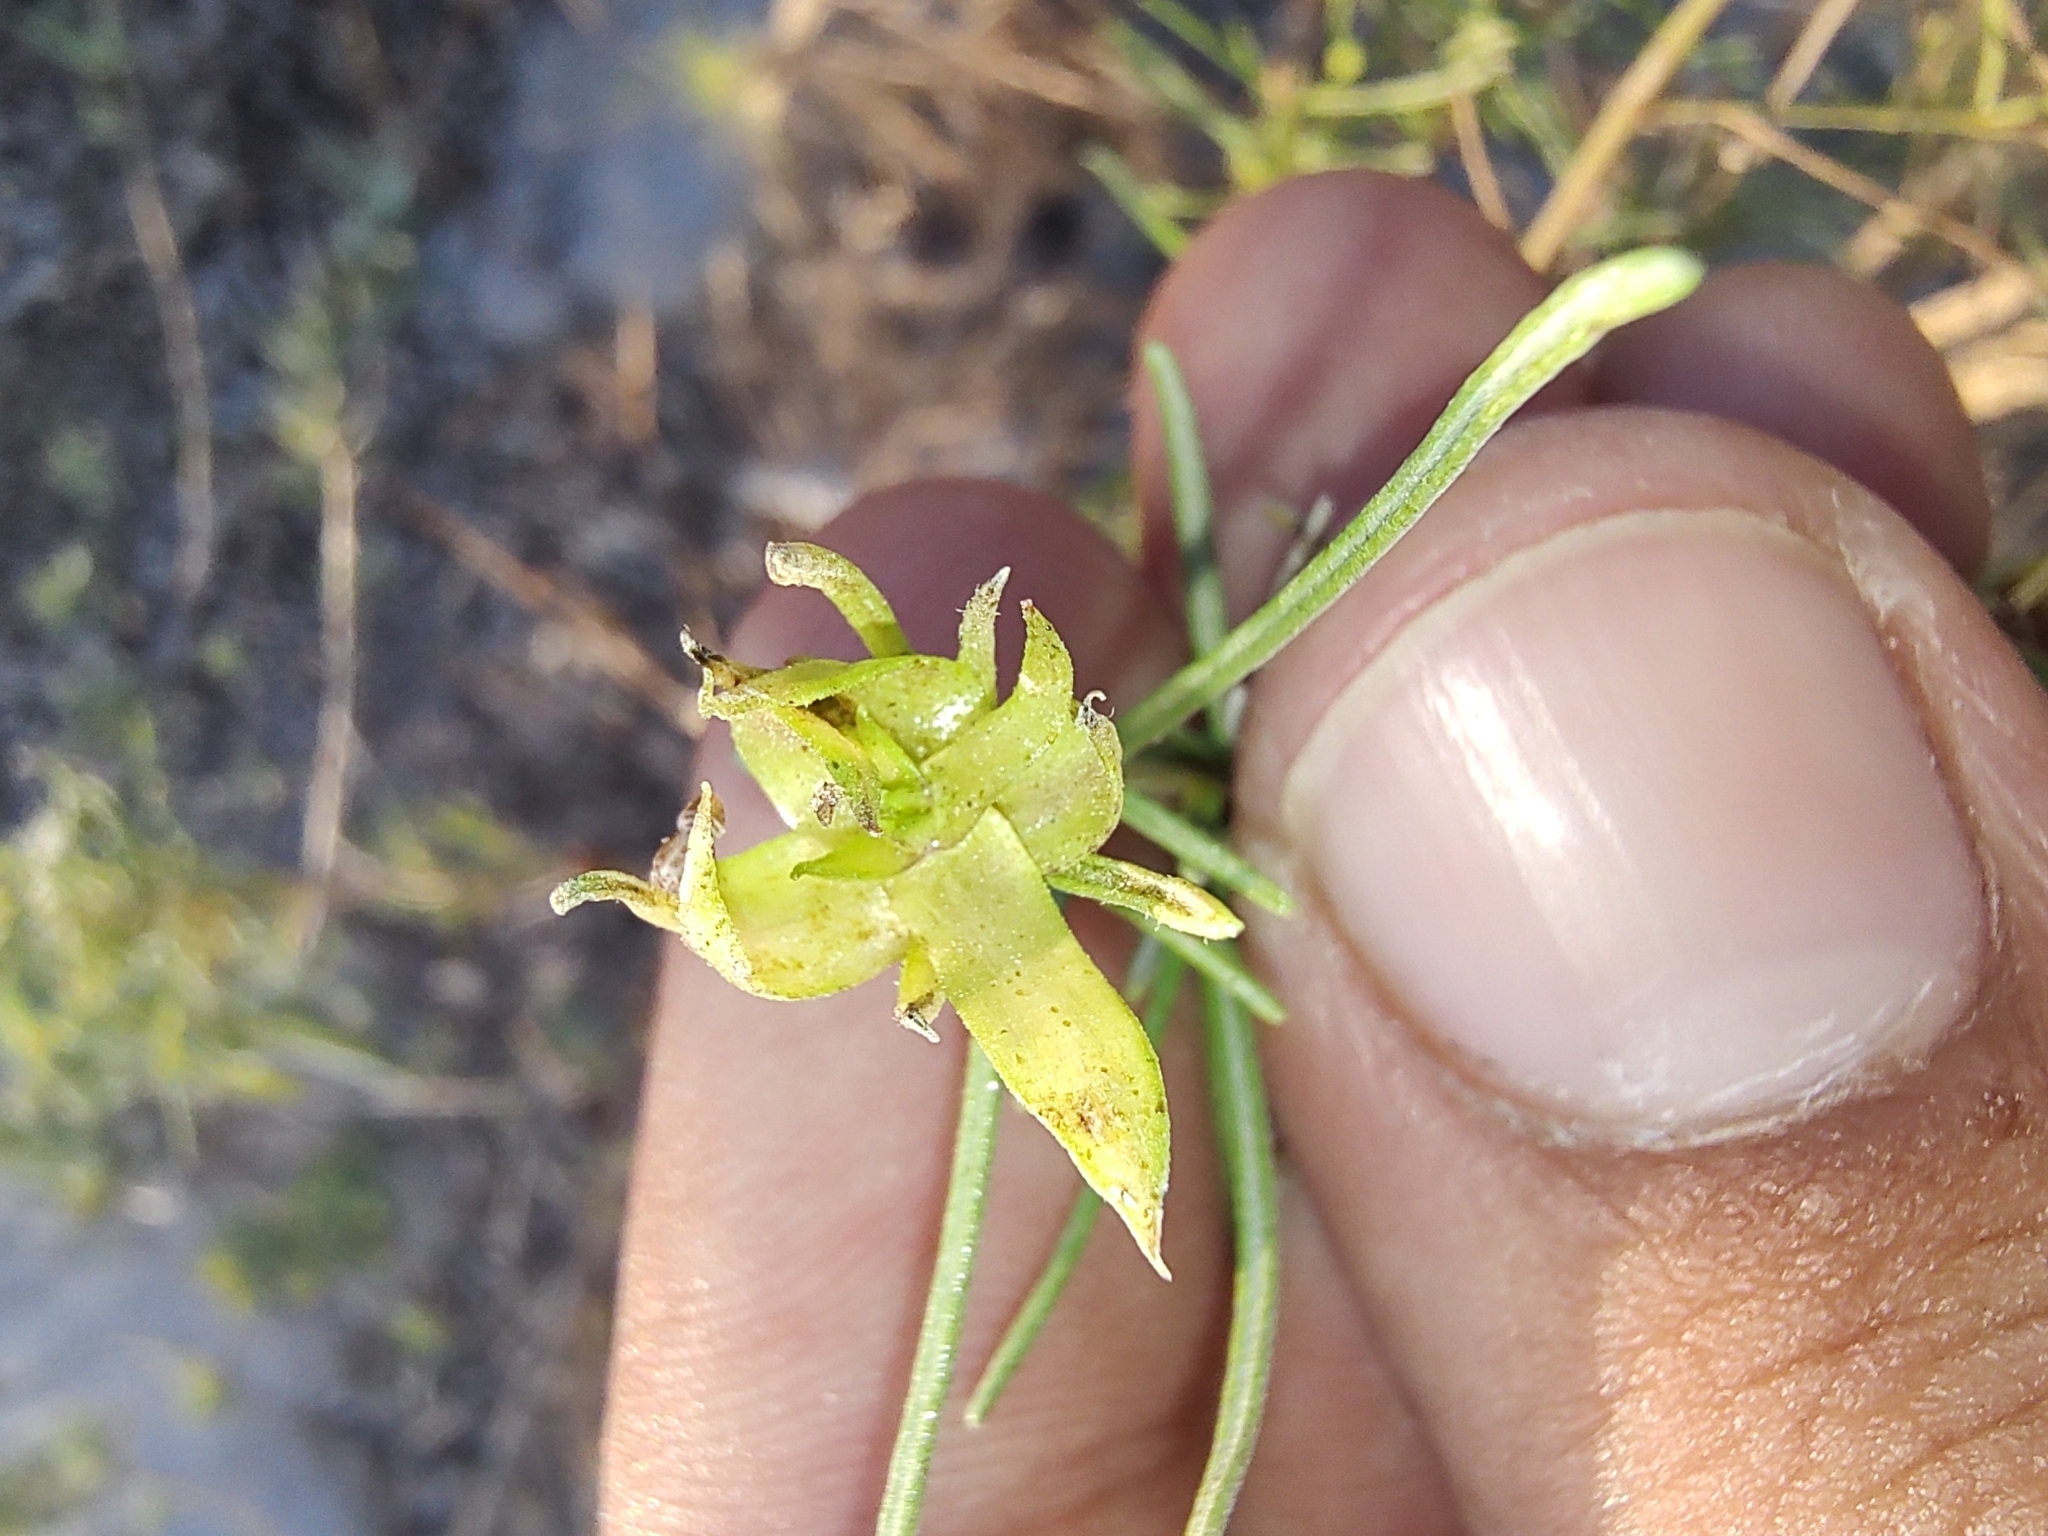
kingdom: Plantae
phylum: Tracheophyta
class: Magnoliopsida
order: Asterales
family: Asteraceae
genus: Ambrosia
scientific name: Ambrosia monogyra
